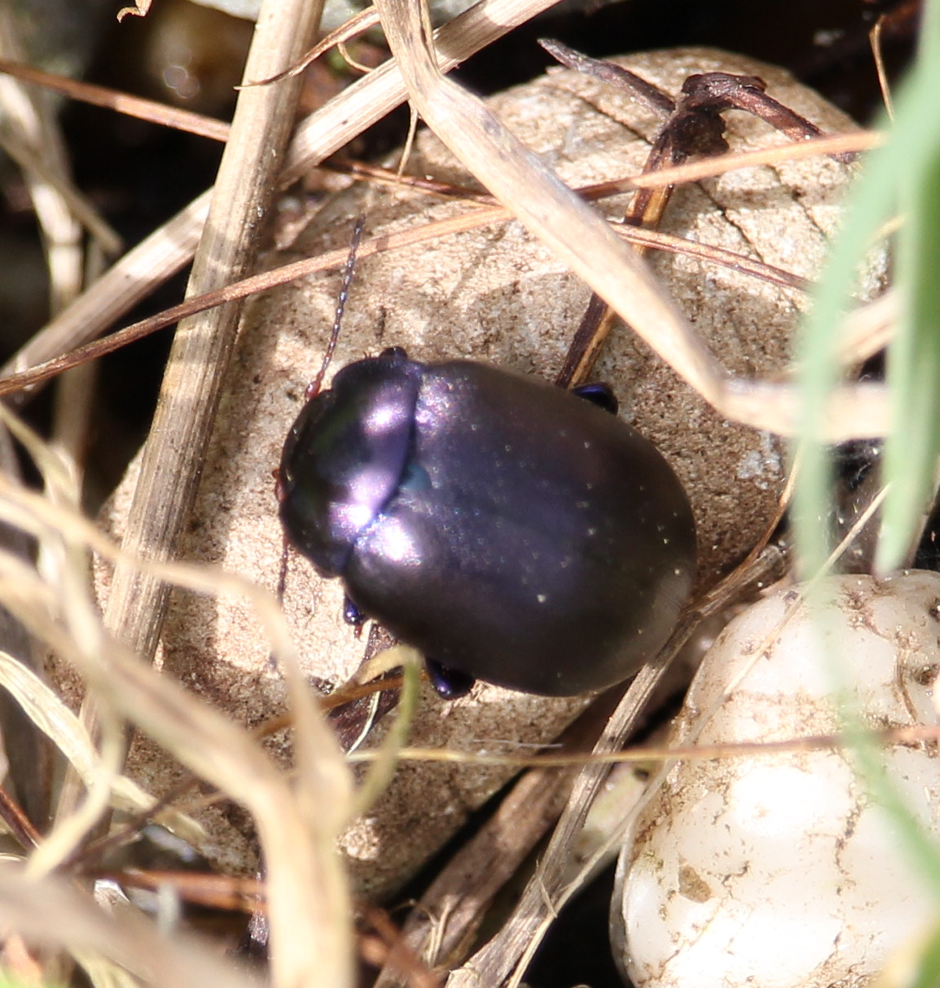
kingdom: Animalia
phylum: Arthropoda
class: Insecta
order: Coleoptera
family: Chrysomelidae
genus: Chrysolina
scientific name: Chrysolina sturmi
